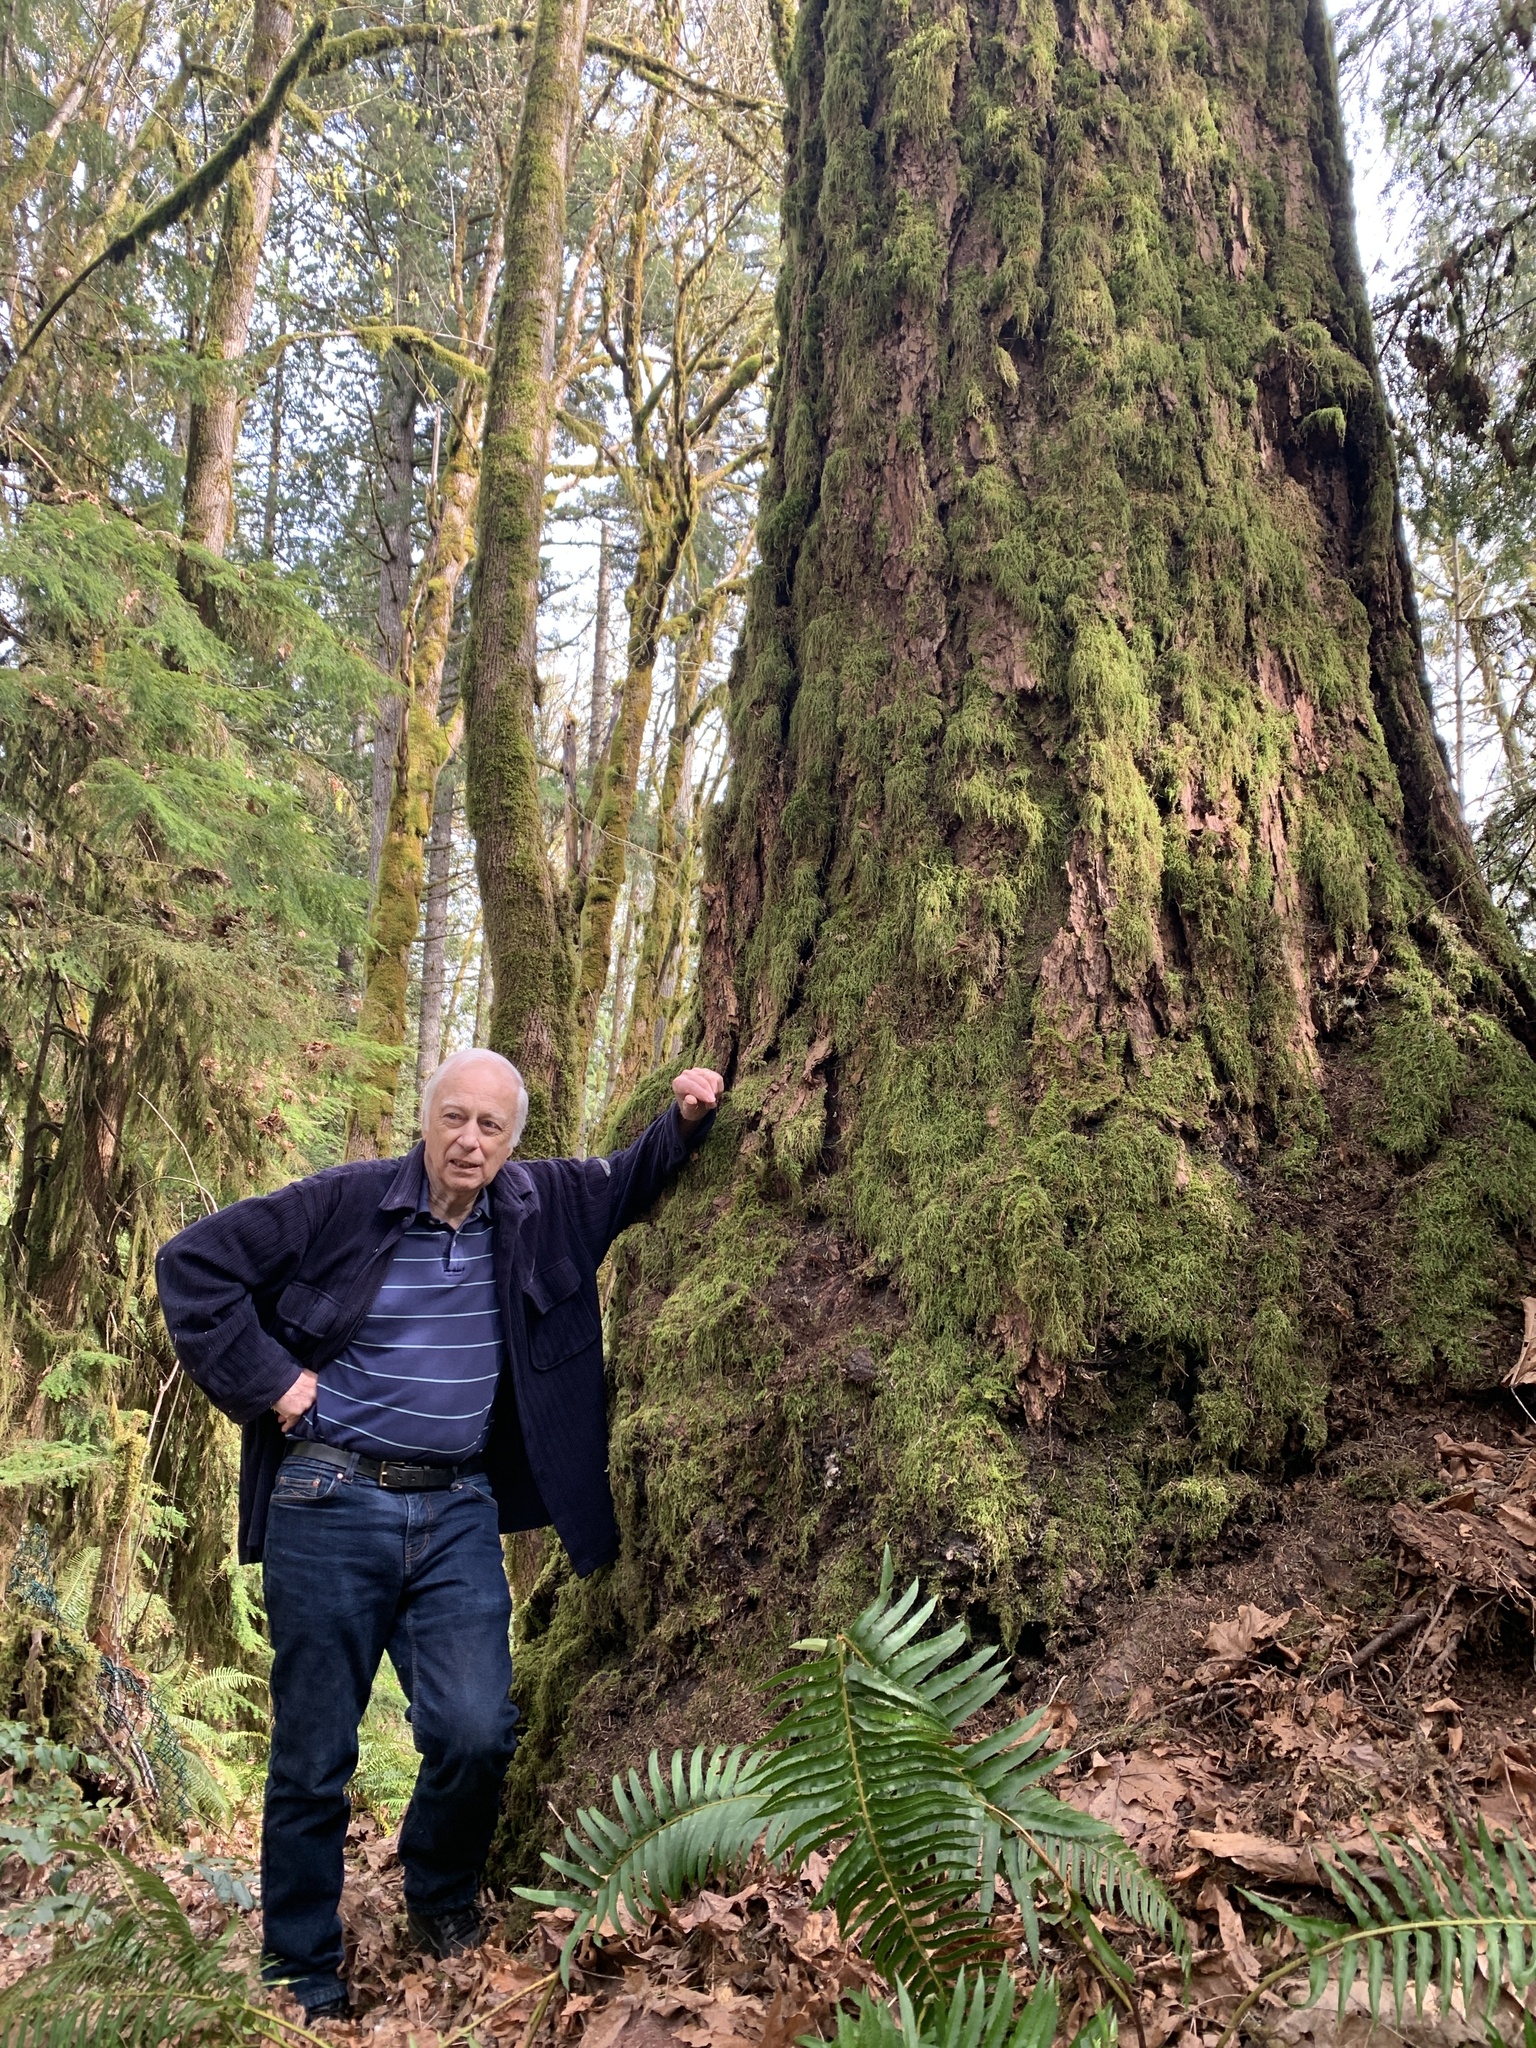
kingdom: Plantae
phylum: Tracheophyta
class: Pinopsida
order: Pinales
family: Pinaceae
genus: Pseudotsuga
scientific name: Pseudotsuga menziesii
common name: Douglas fir
